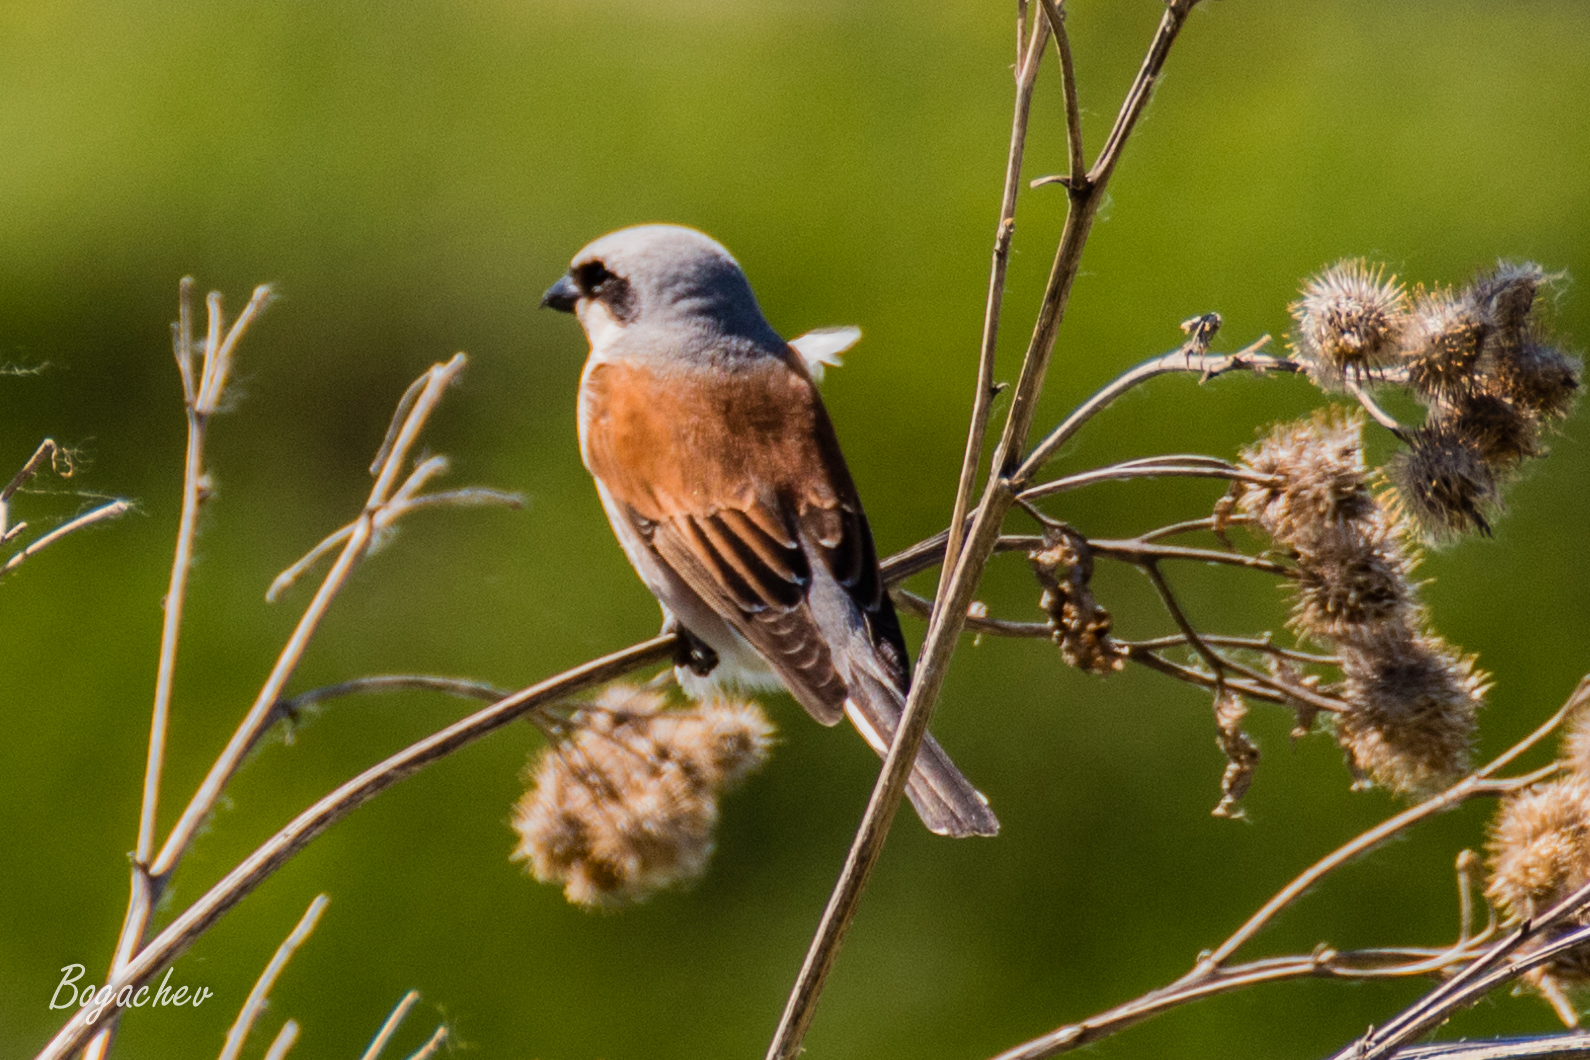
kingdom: Animalia
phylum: Chordata
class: Aves
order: Passeriformes
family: Laniidae
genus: Lanius
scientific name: Lanius collurio
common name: Red-backed shrike
